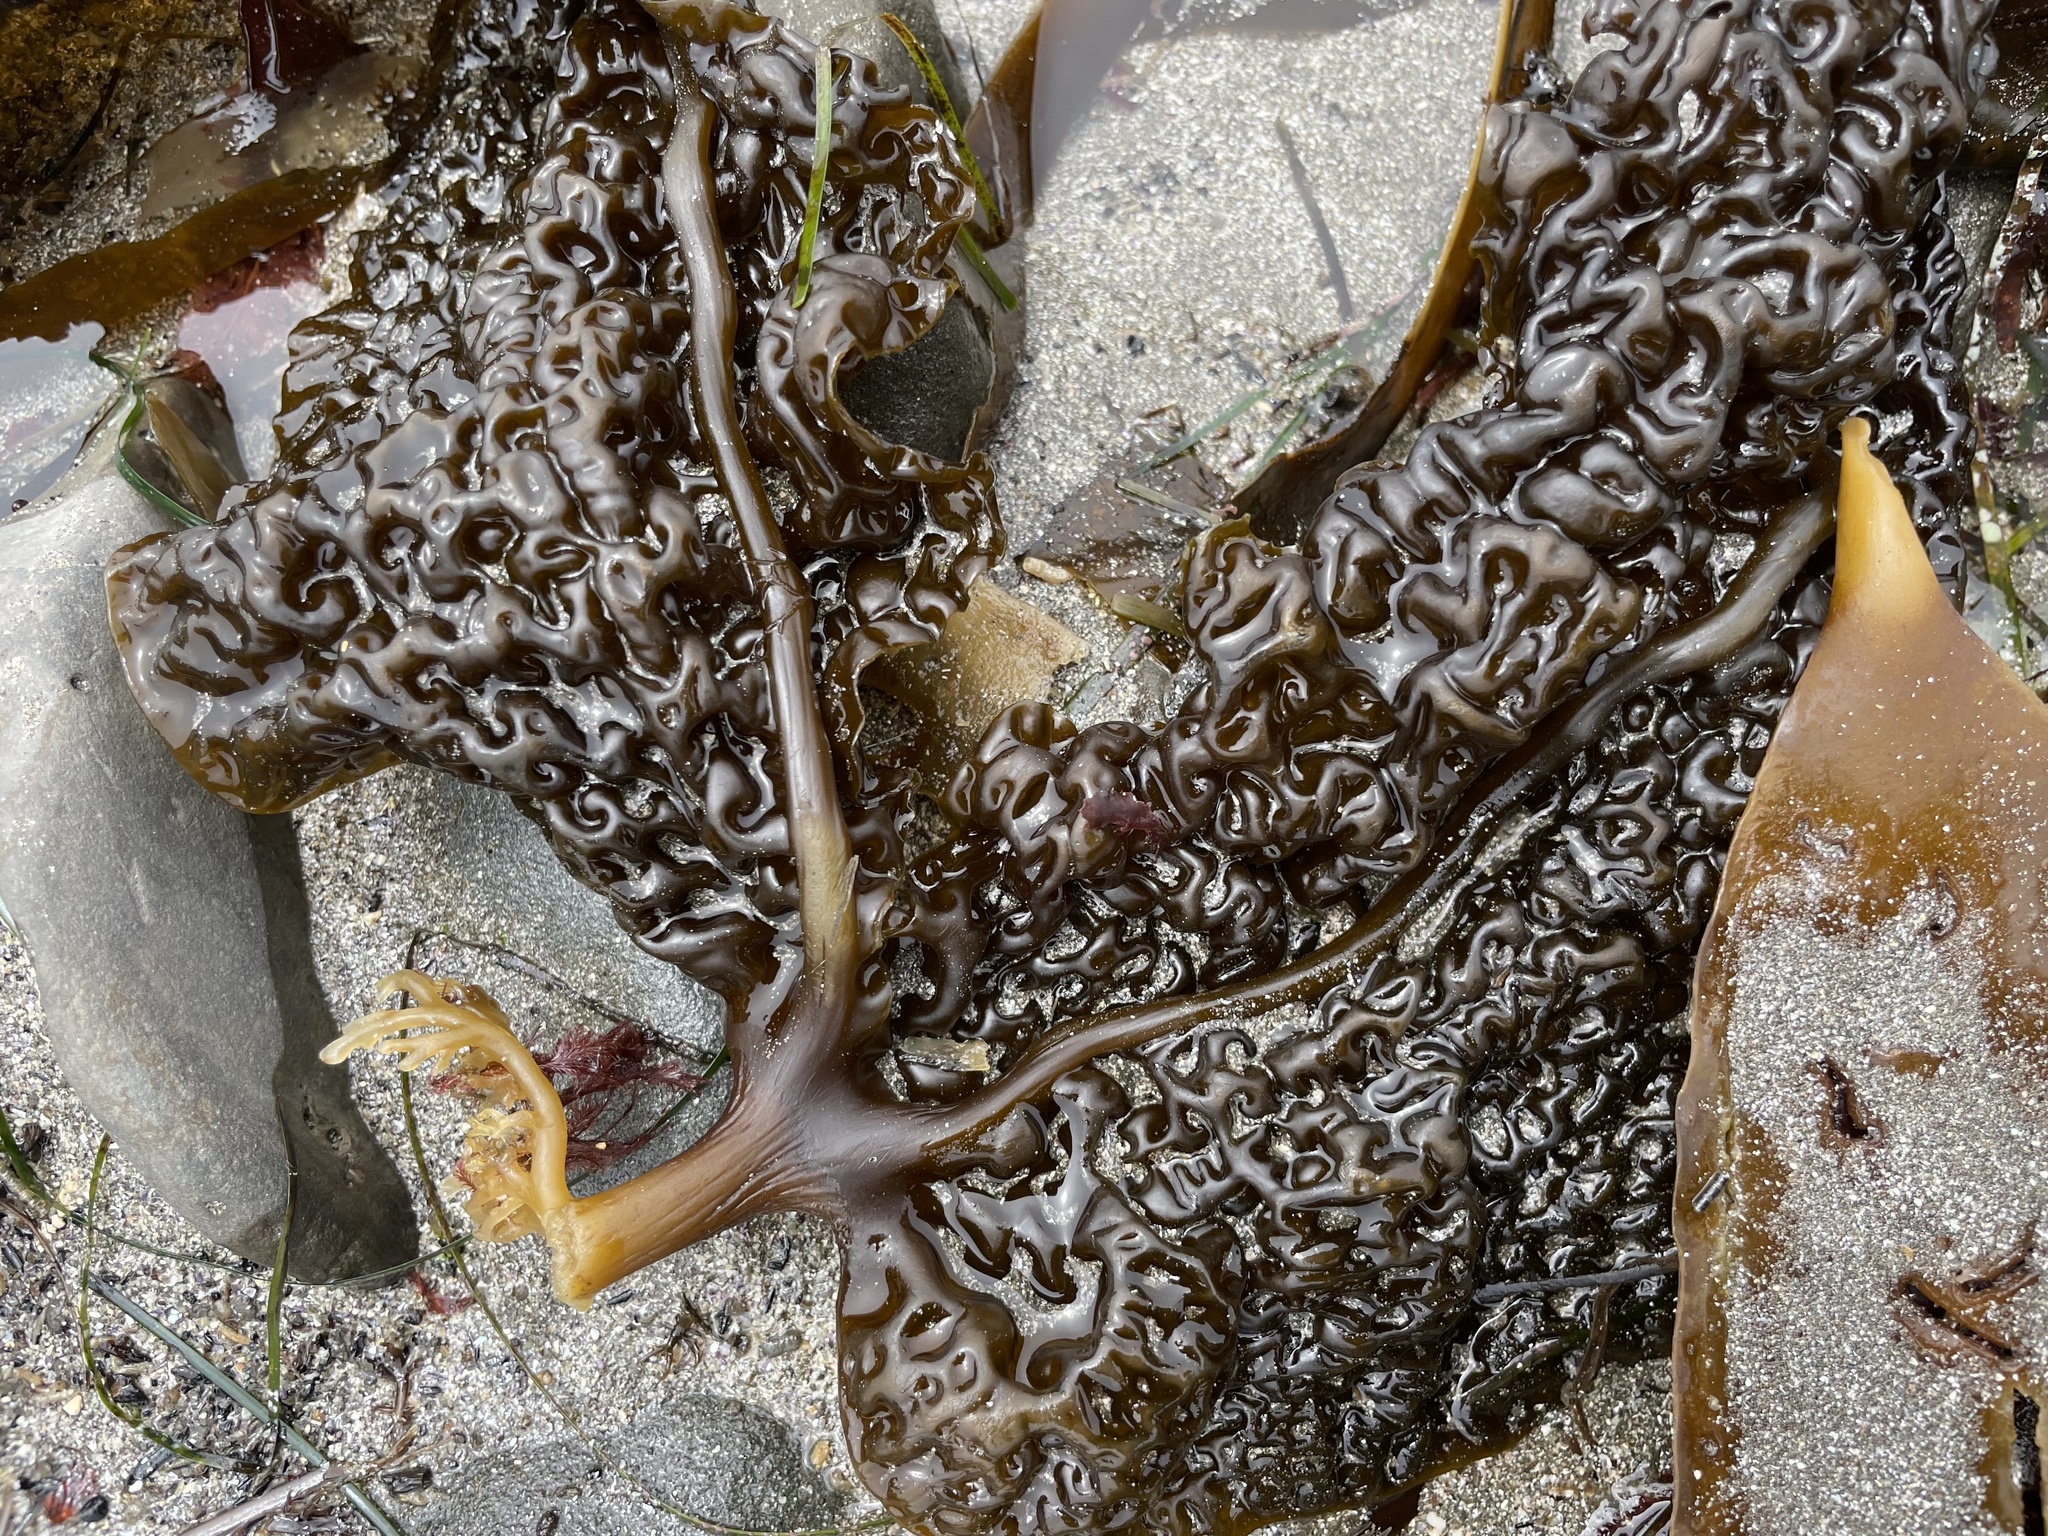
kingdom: Chromista
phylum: Ochrophyta
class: Phaeophyceae
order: Laminariales
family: Costariaceae
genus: Costaria
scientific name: Costaria costata
